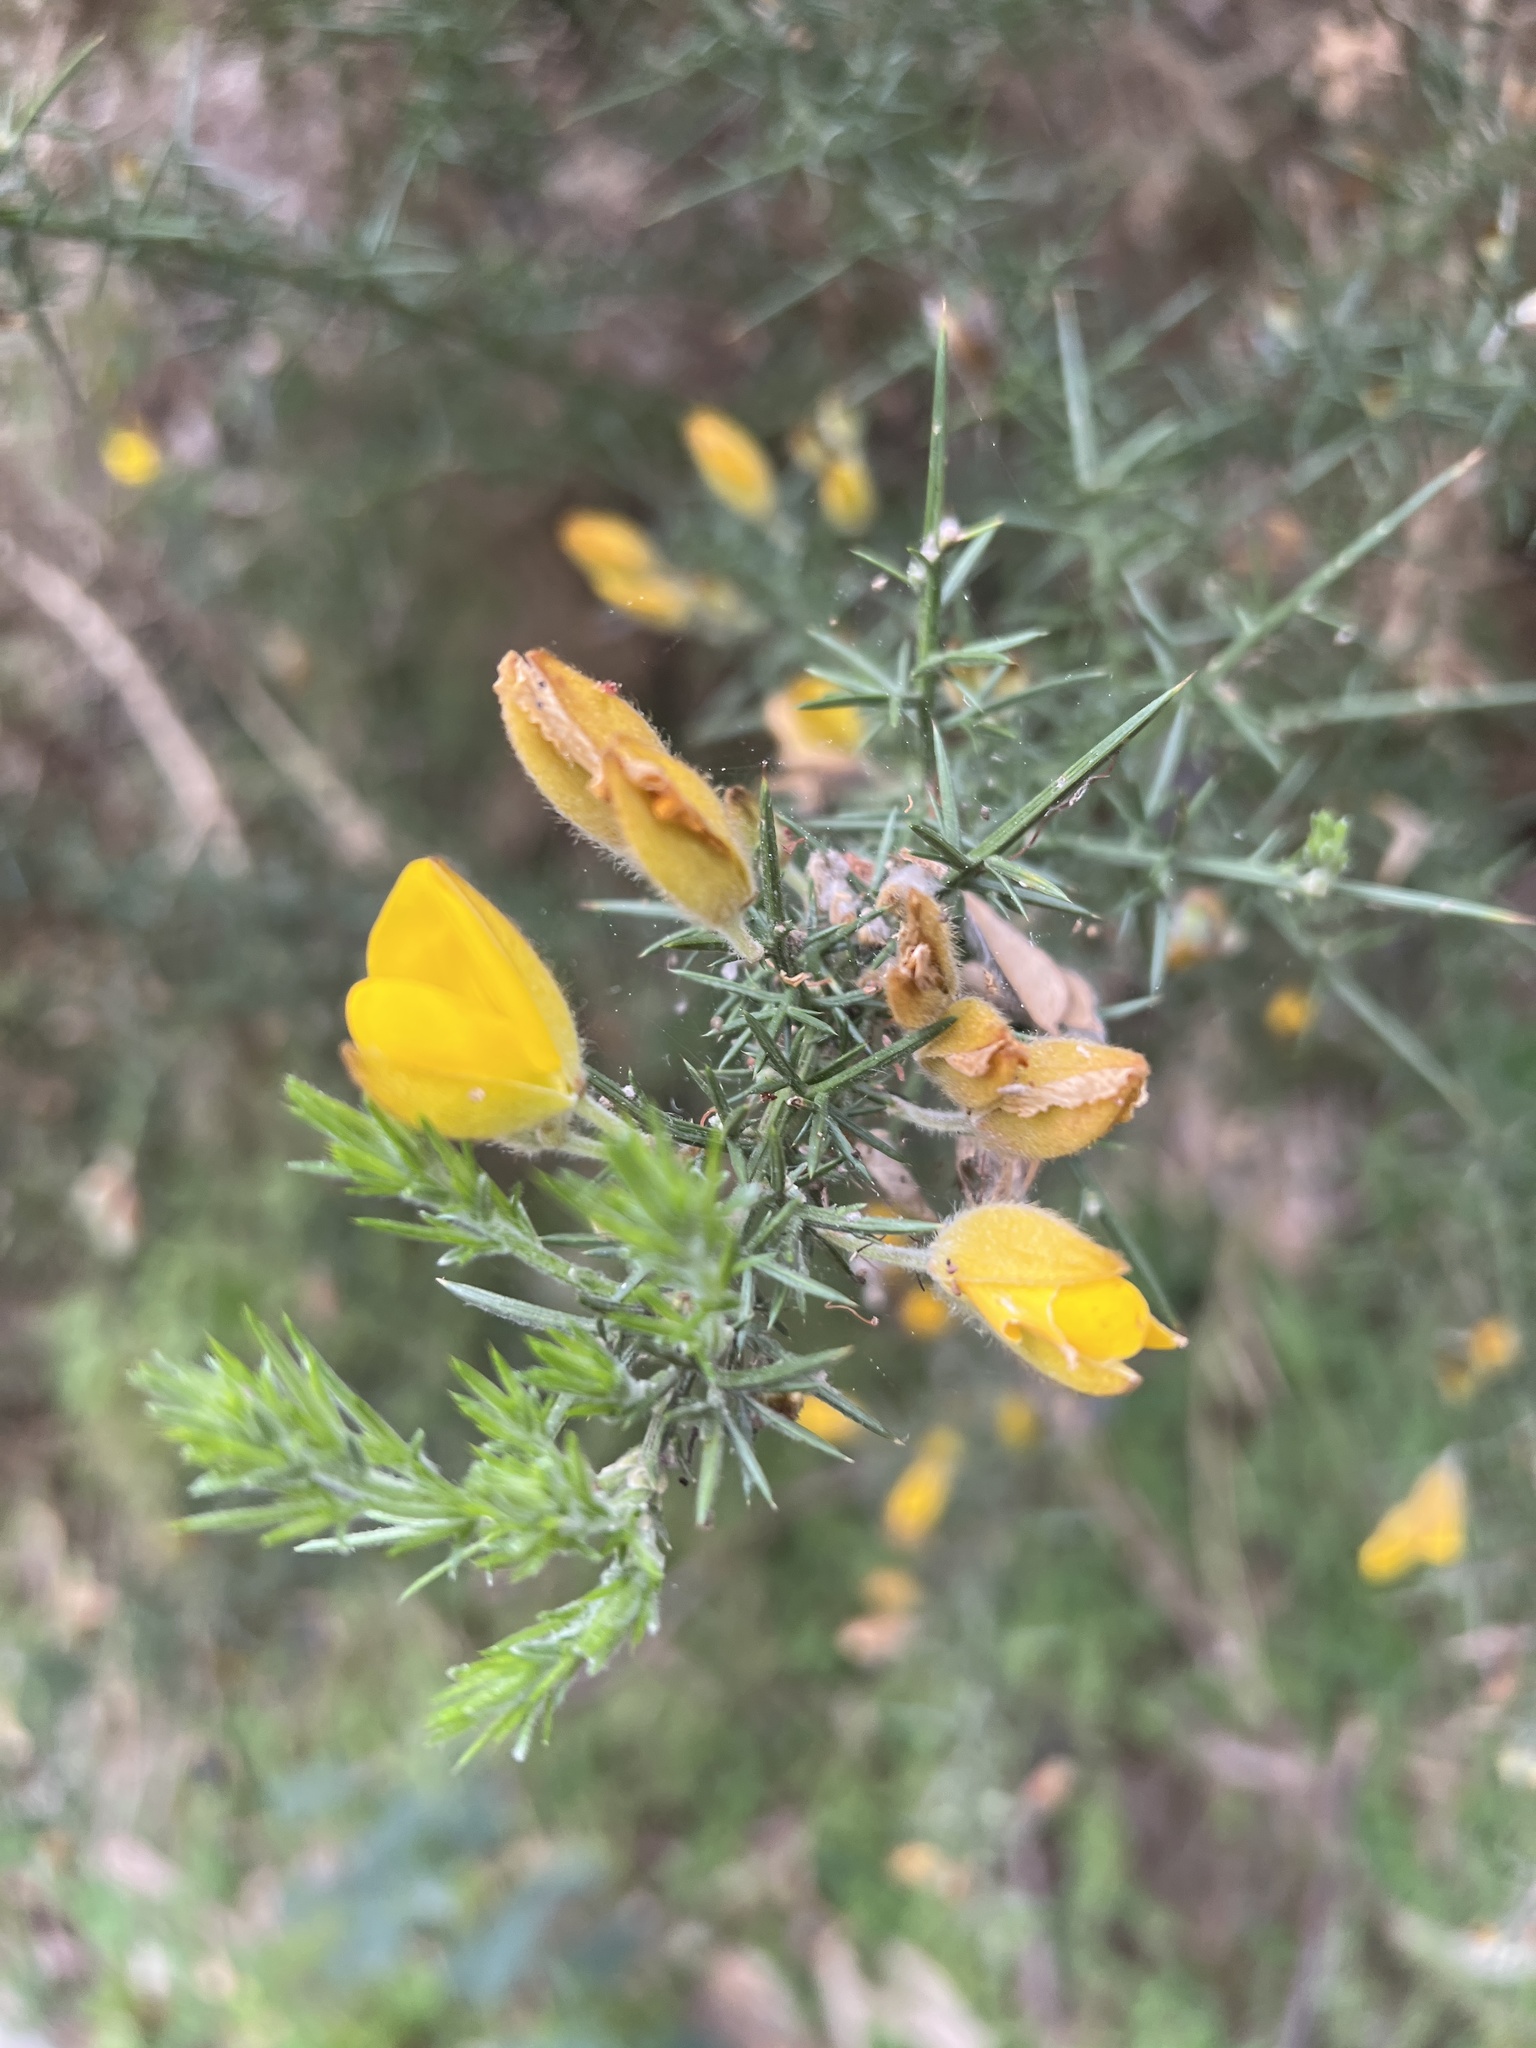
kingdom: Plantae
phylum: Tracheophyta
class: Magnoliopsida
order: Fabales
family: Fabaceae
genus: Ulex
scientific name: Ulex europaeus
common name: Common gorse
